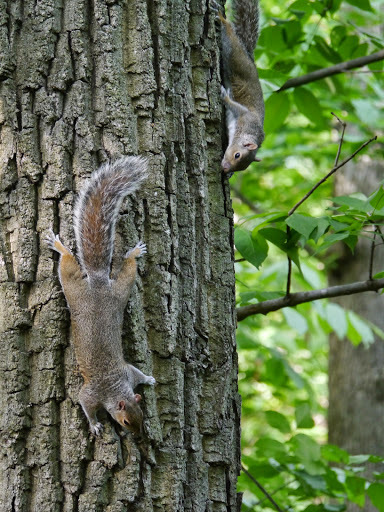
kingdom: Animalia
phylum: Chordata
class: Mammalia
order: Rodentia
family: Sciuridae
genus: Sciurus
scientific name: Sciurus carolinensis
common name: Eastern gray squirrel
